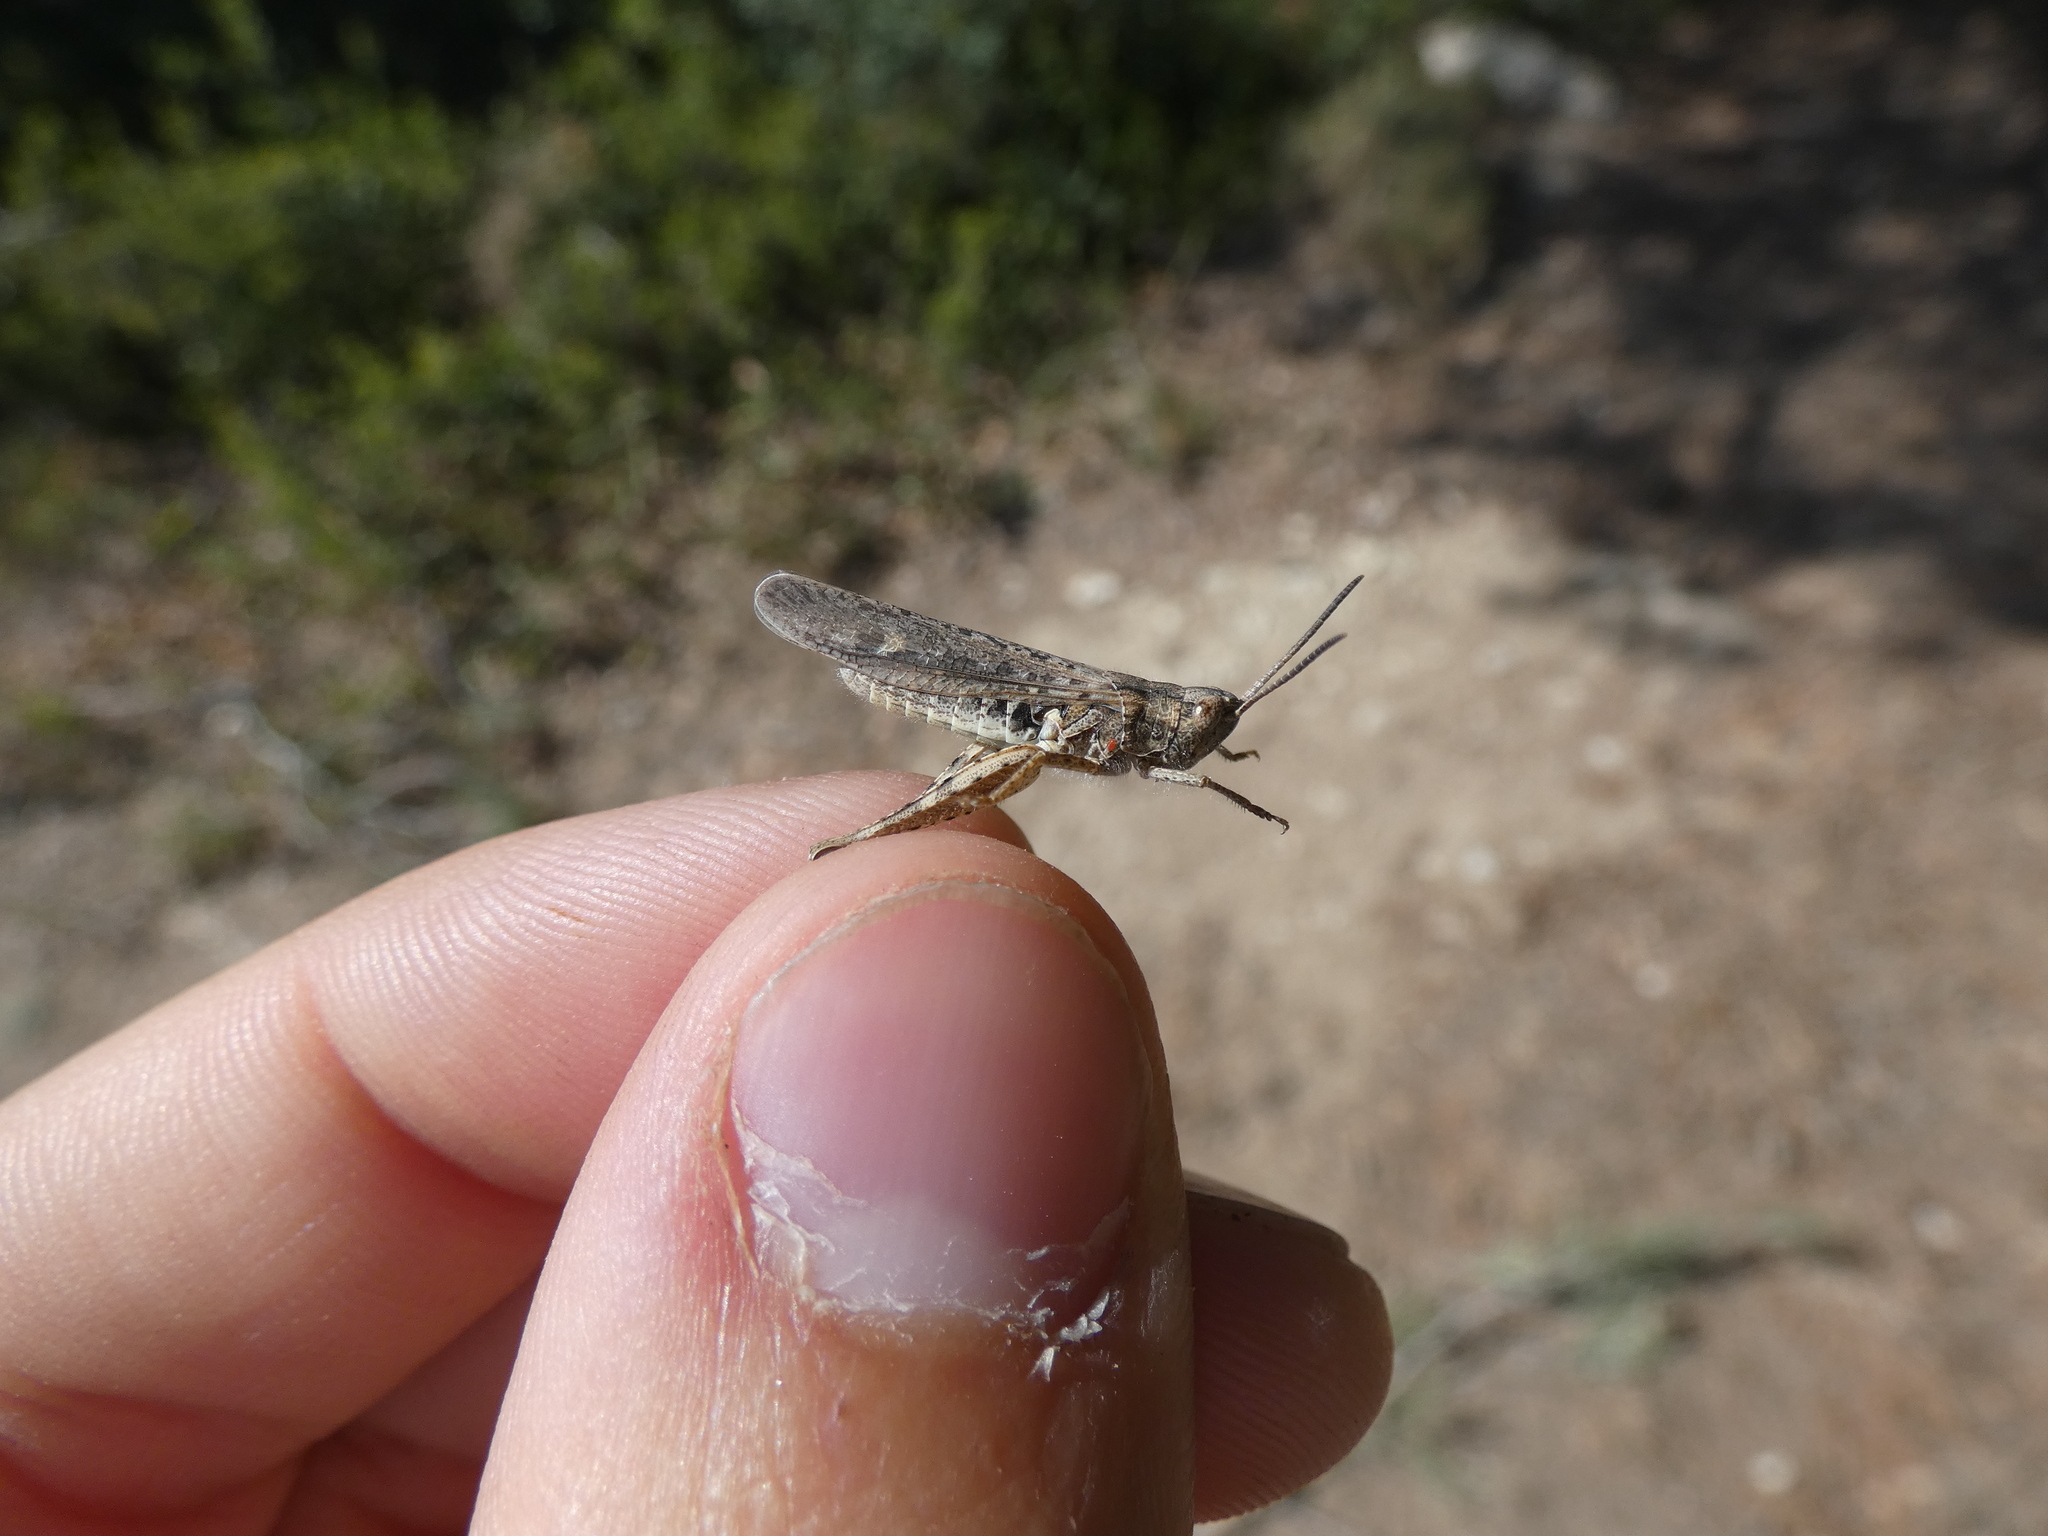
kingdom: Animalia
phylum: Arthropoda
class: Insecta
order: Orthoptera
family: Acrididae
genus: Chorthippus
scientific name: Chorthippus brunneus
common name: Field grasshopper
